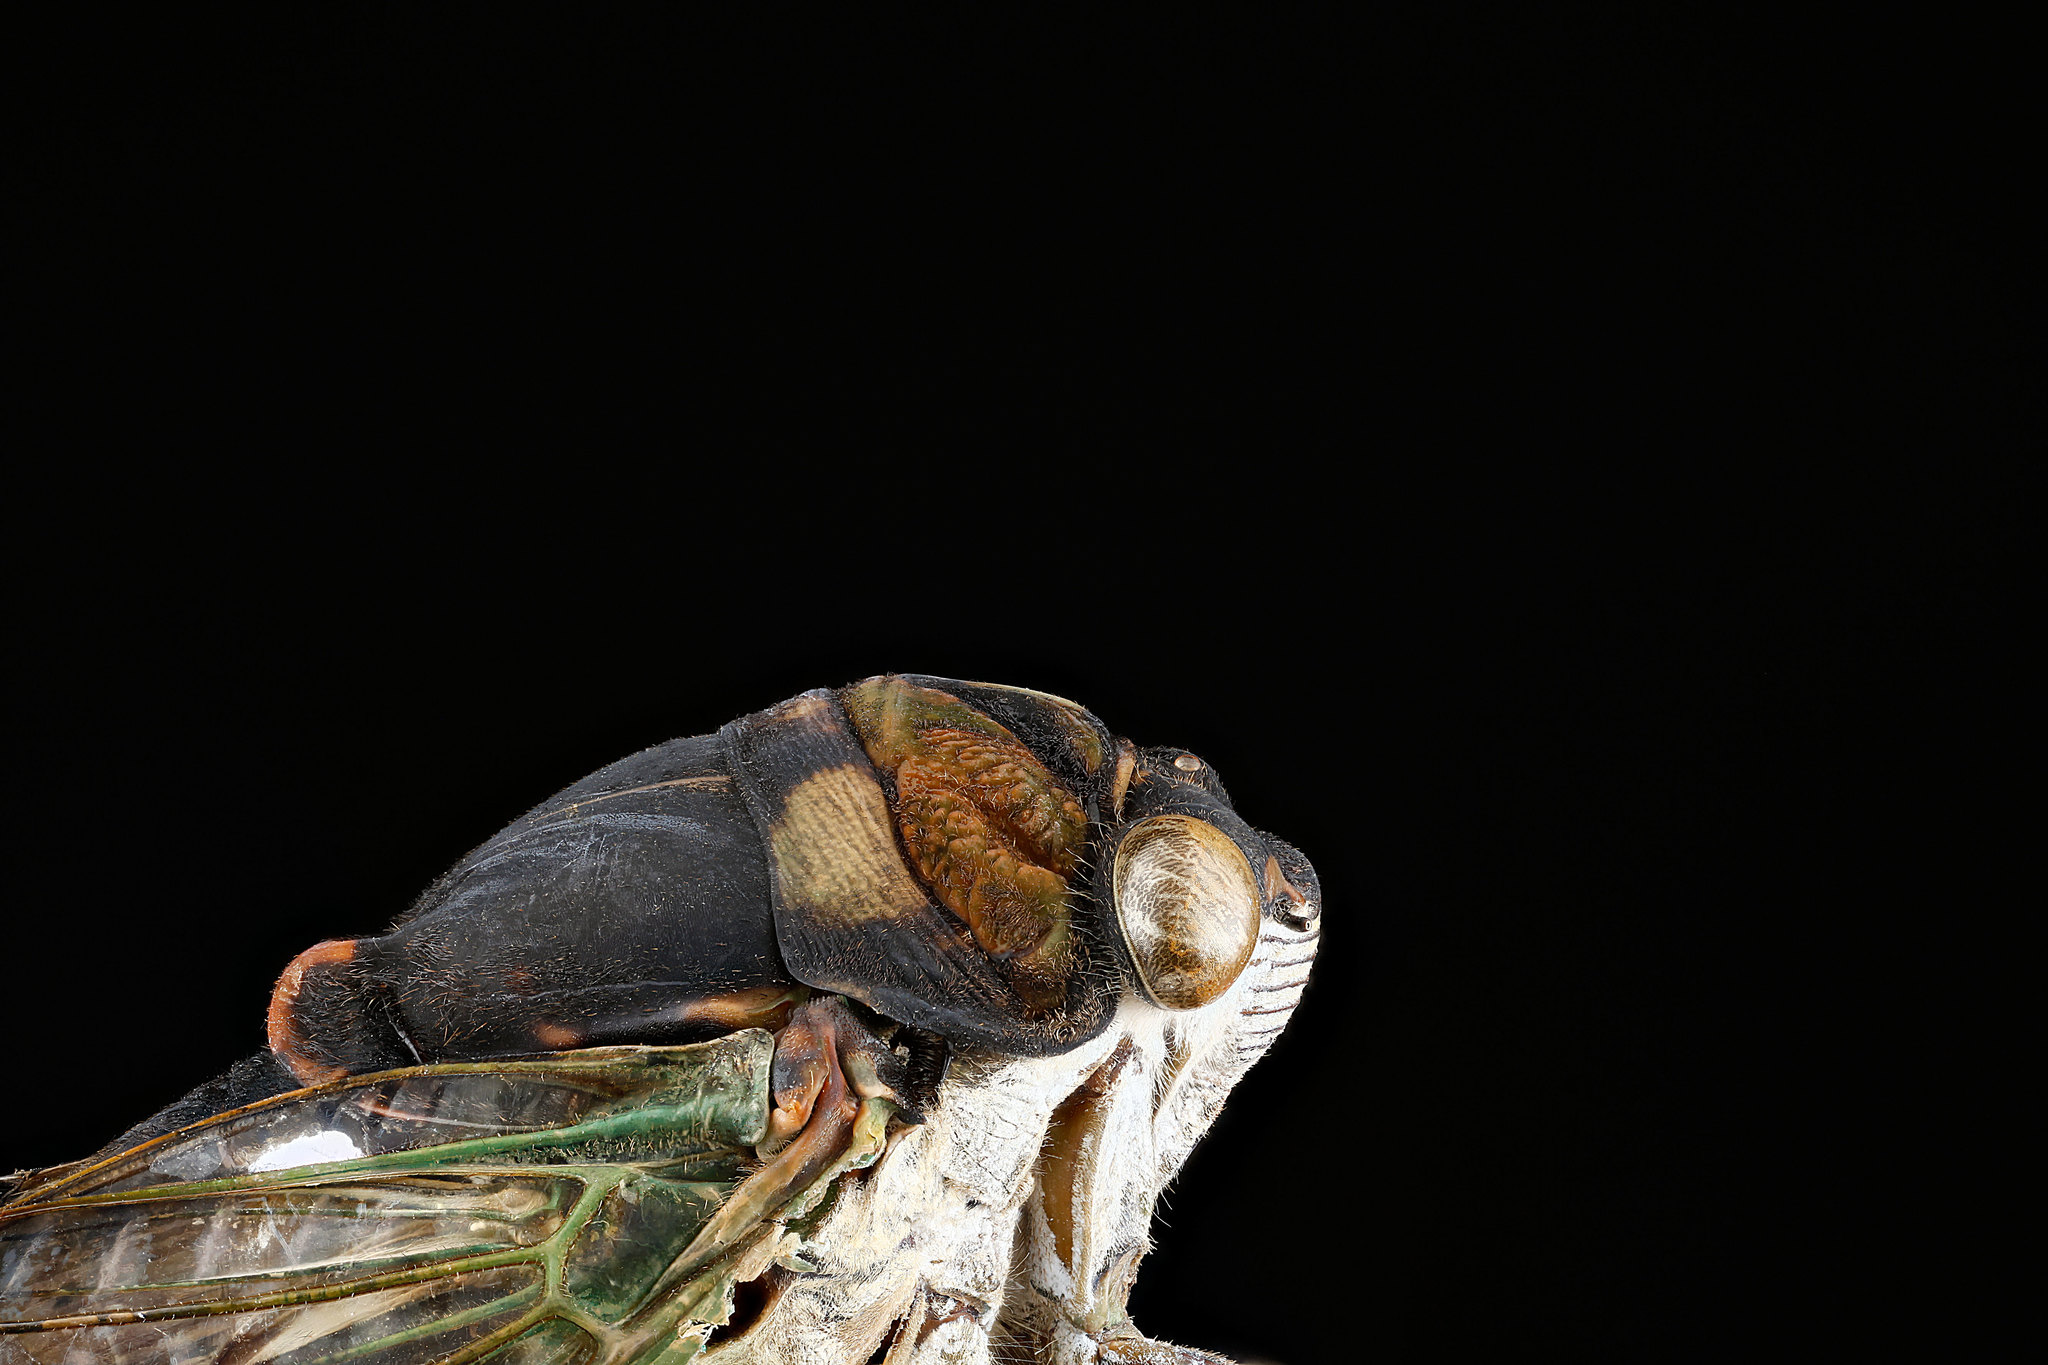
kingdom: Animalia
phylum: Arthropoda
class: Insecta
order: Hemiptera
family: Cicadidae
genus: Neotibicen
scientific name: Neotibicen tibicen
